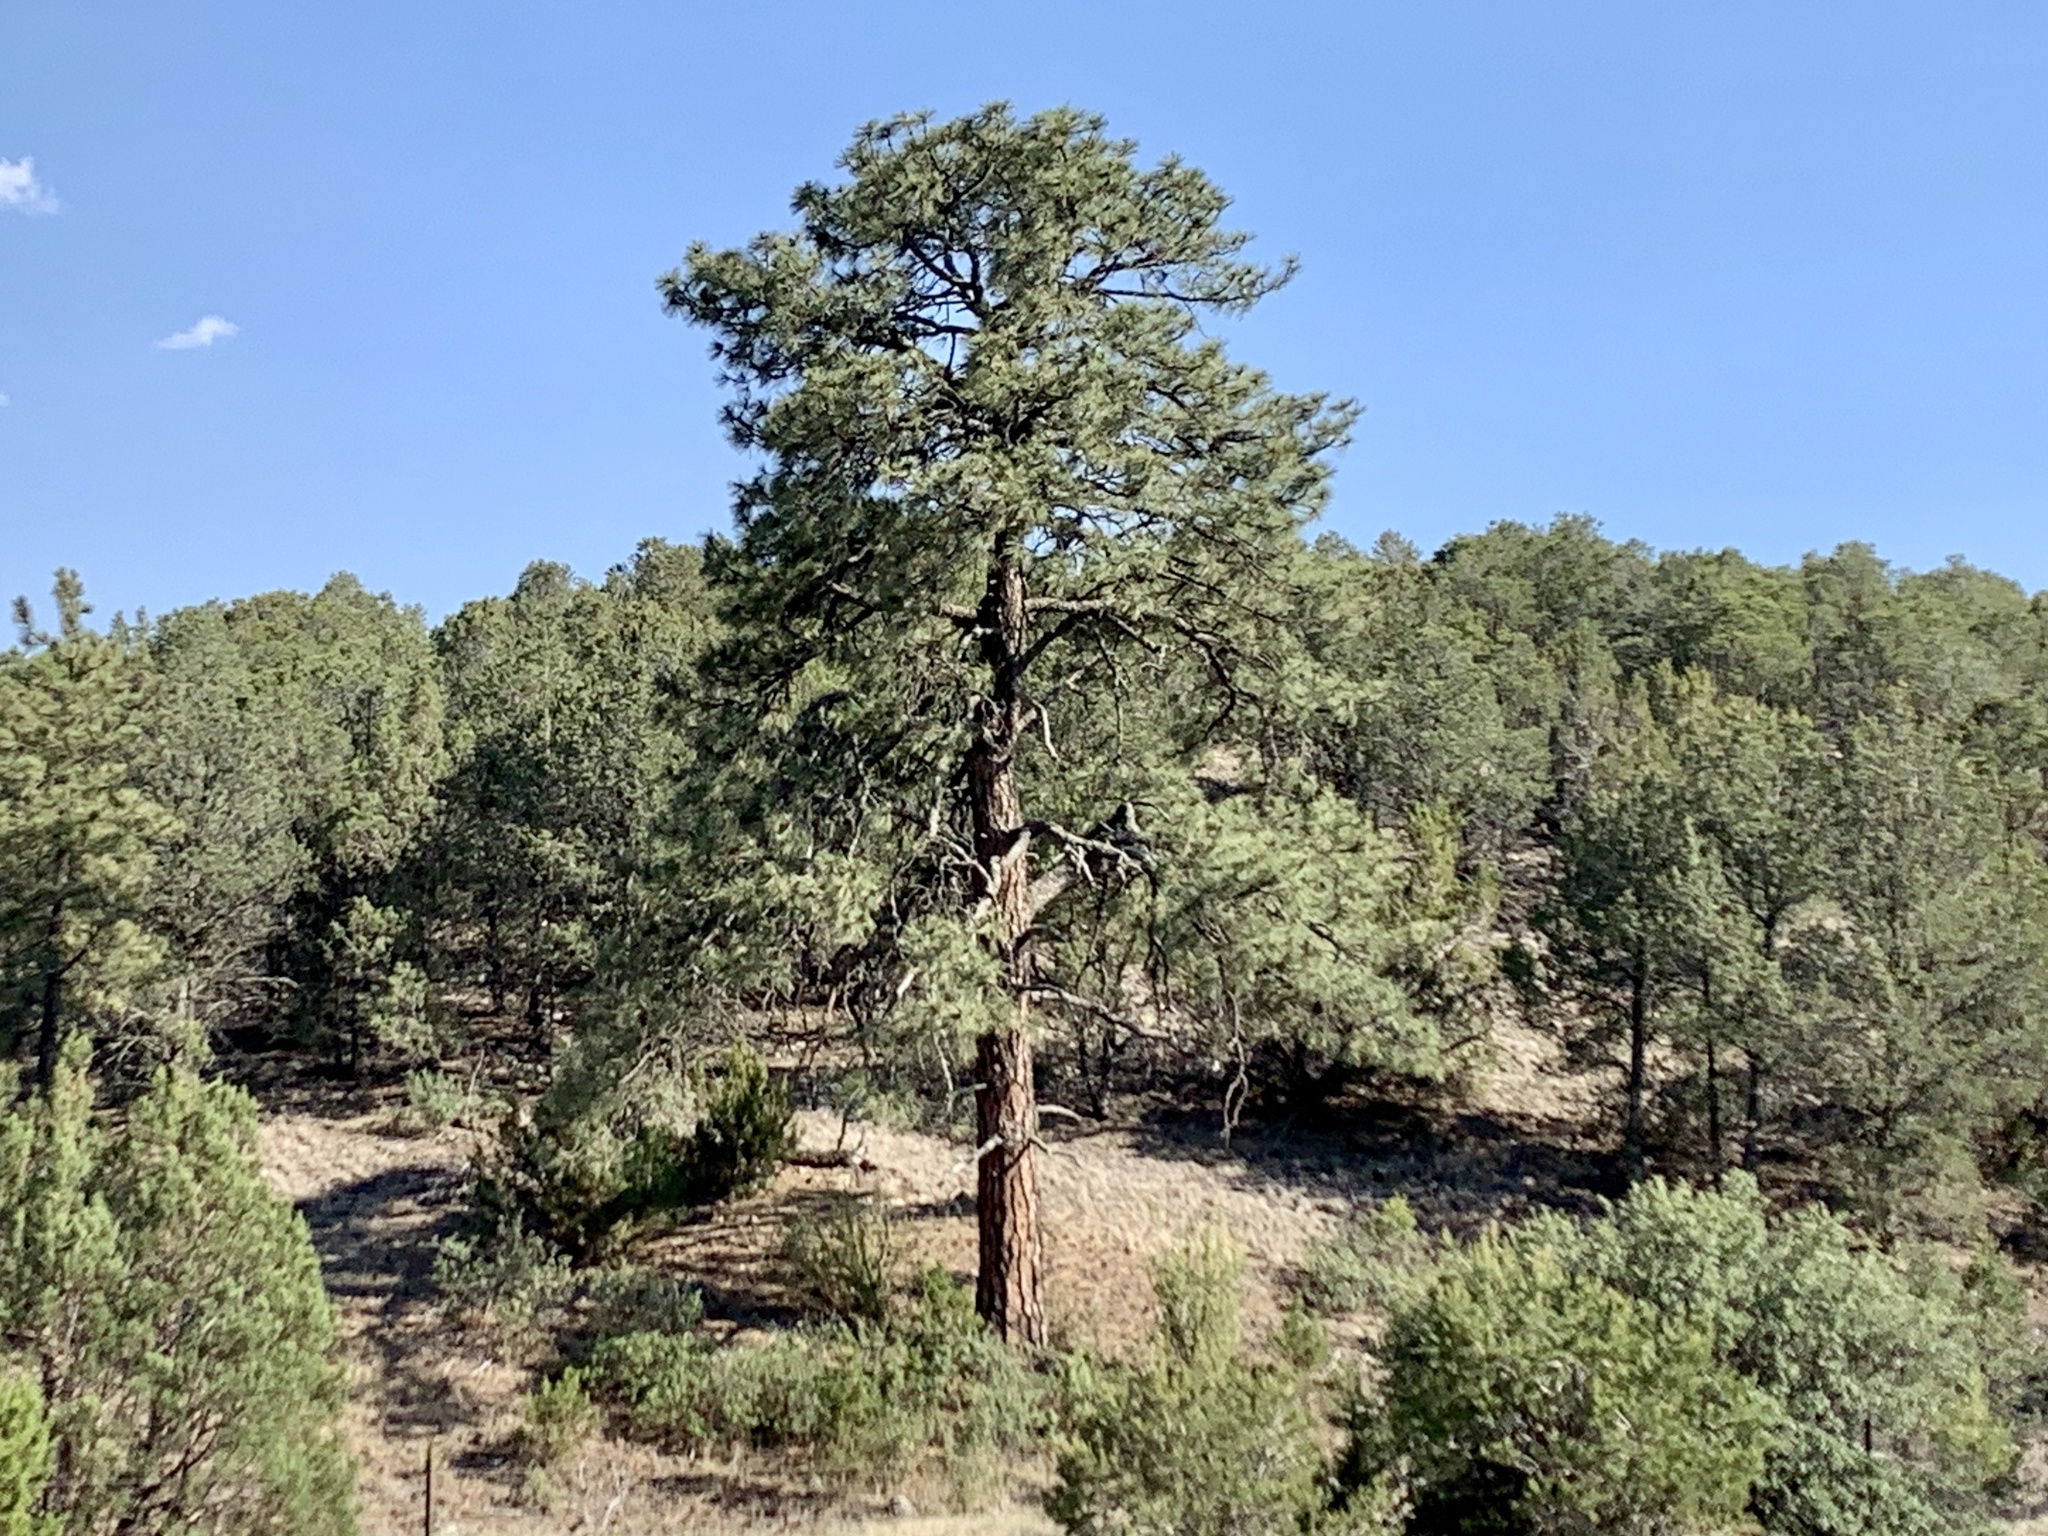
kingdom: Plantae
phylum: Tracheophyta
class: Pinopsida
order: Pinales
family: Pinaceae
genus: Pinus
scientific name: Pinus ponderosa
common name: Western yellow-pine
